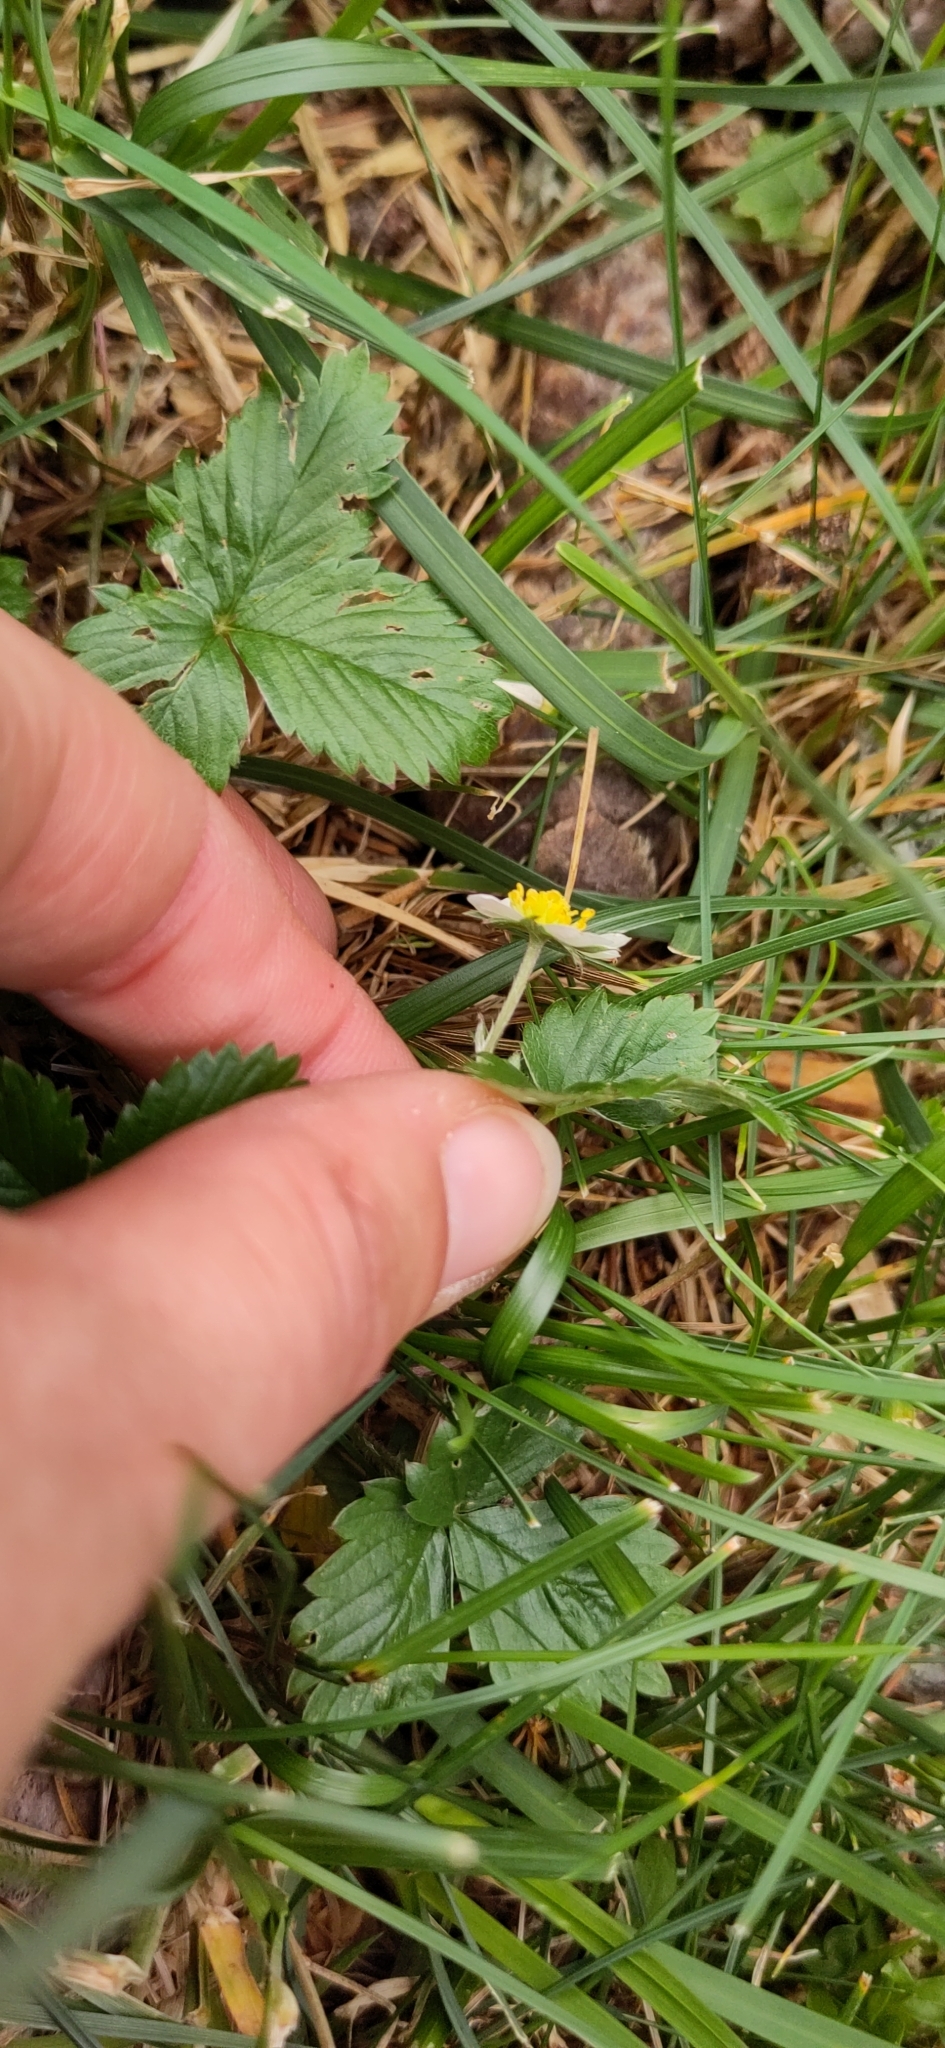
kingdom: Plantae
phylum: Tracheophyta
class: Magnoliopsida
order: Rosales
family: Rosaceae
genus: Fragaria
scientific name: Fragaria vesca
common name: Wild strawberry
